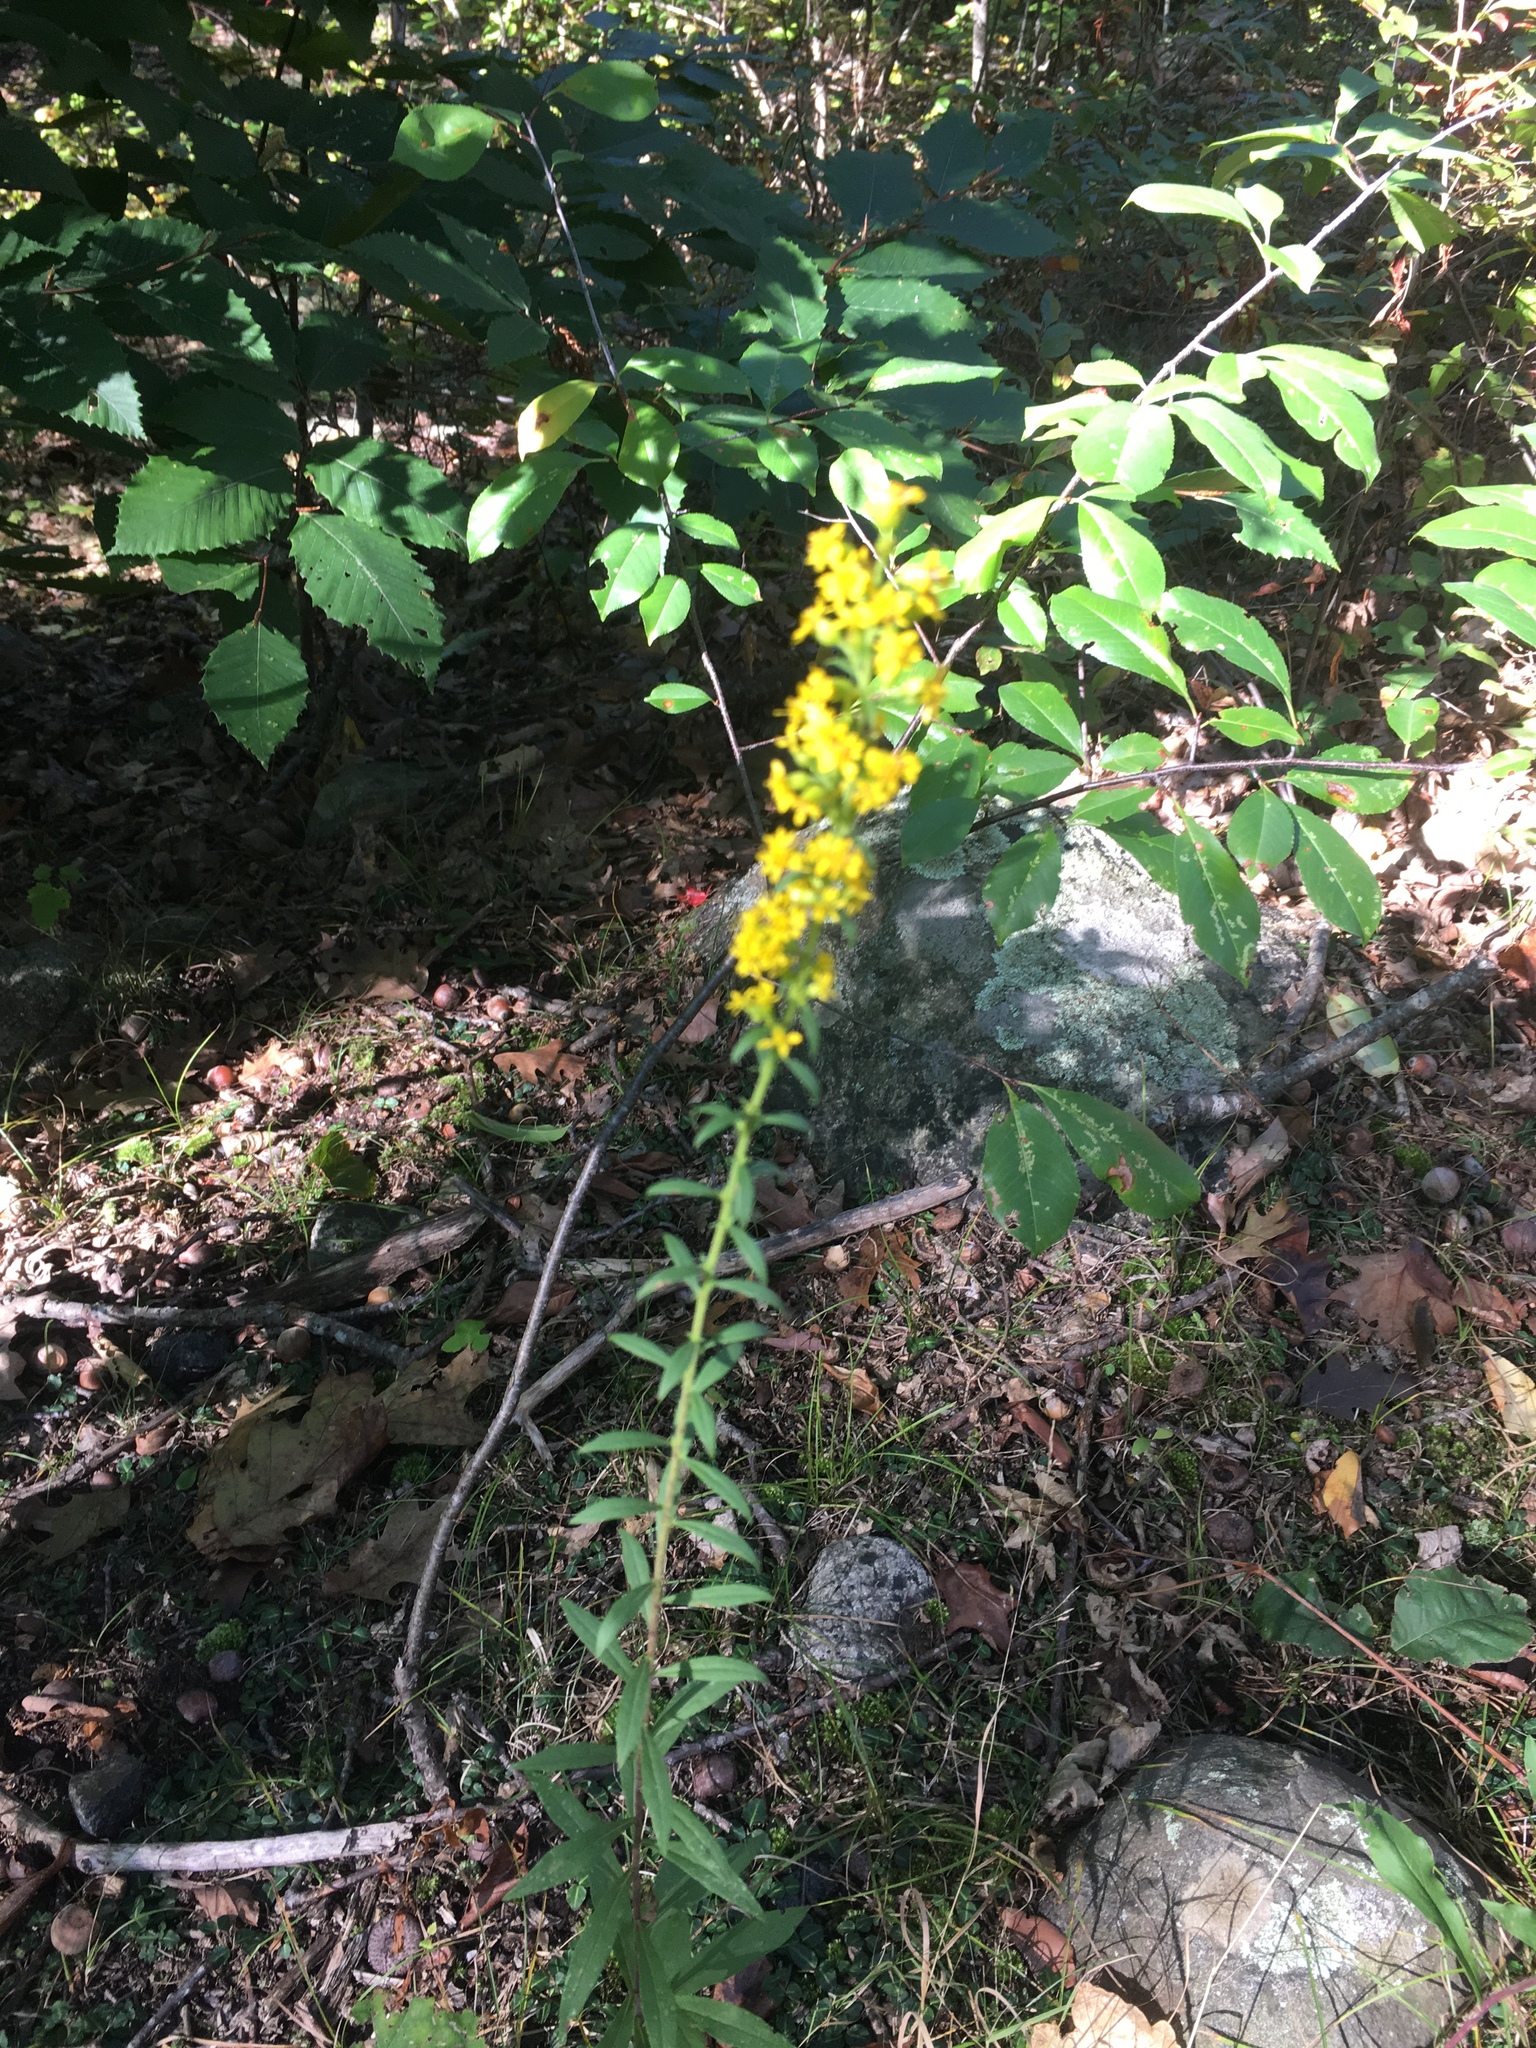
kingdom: Plantae
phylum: Tracheophyta
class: Magnoliopsida
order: Asterales
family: Asteraceae
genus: Solidago
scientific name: Solidago puberula
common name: Downy goldenrod
